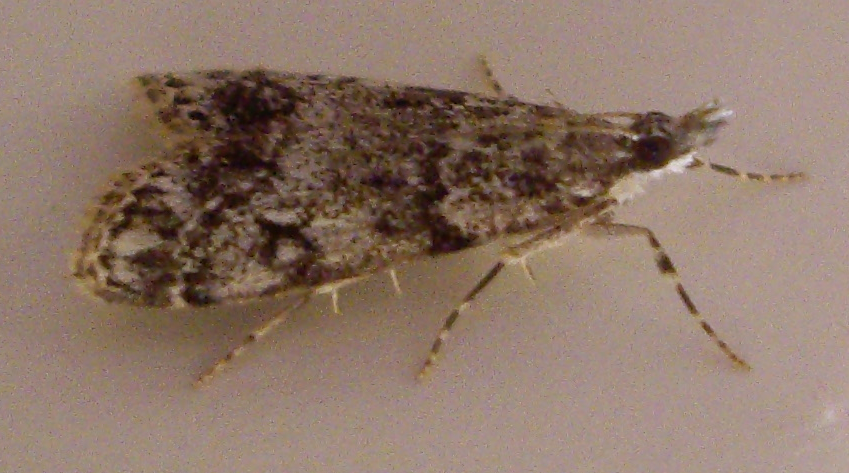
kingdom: Animalia
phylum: Arthropoda
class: Insecta
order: Lepidoptera
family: Crambidae
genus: Eudonia
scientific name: Eudonia lacustrata
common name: Little grey
